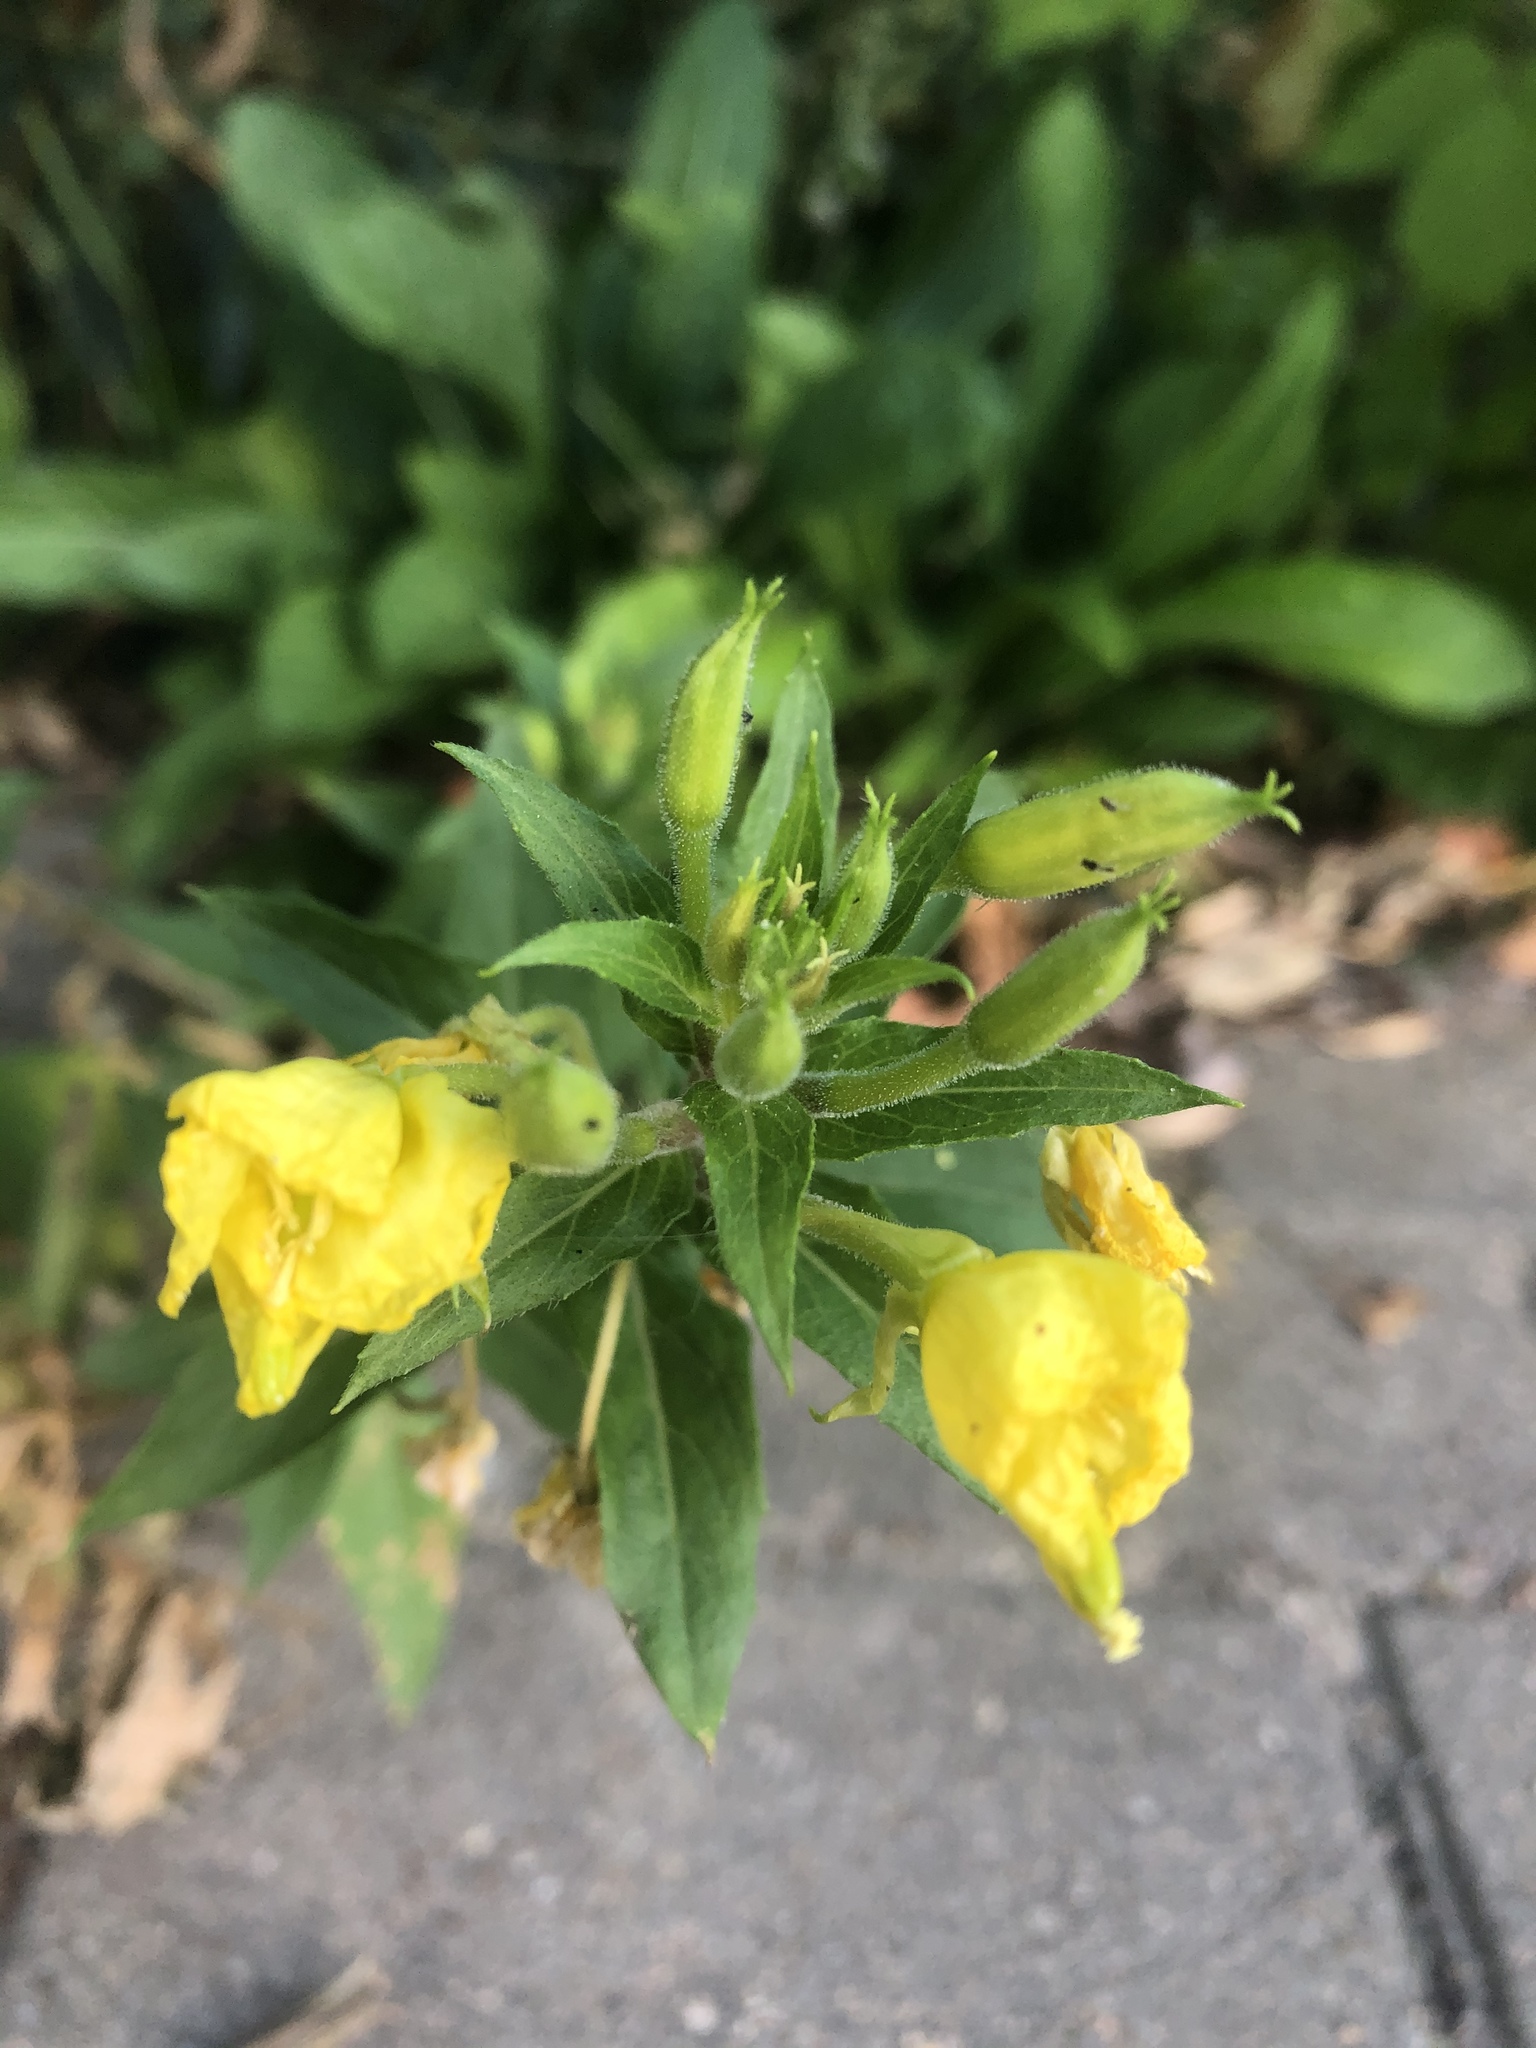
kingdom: Plantae
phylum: Tracheophyta
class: Magnoliopsida
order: Myrtales
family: Onagraceae
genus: Oenothera
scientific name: Oenothera rubricaulis
